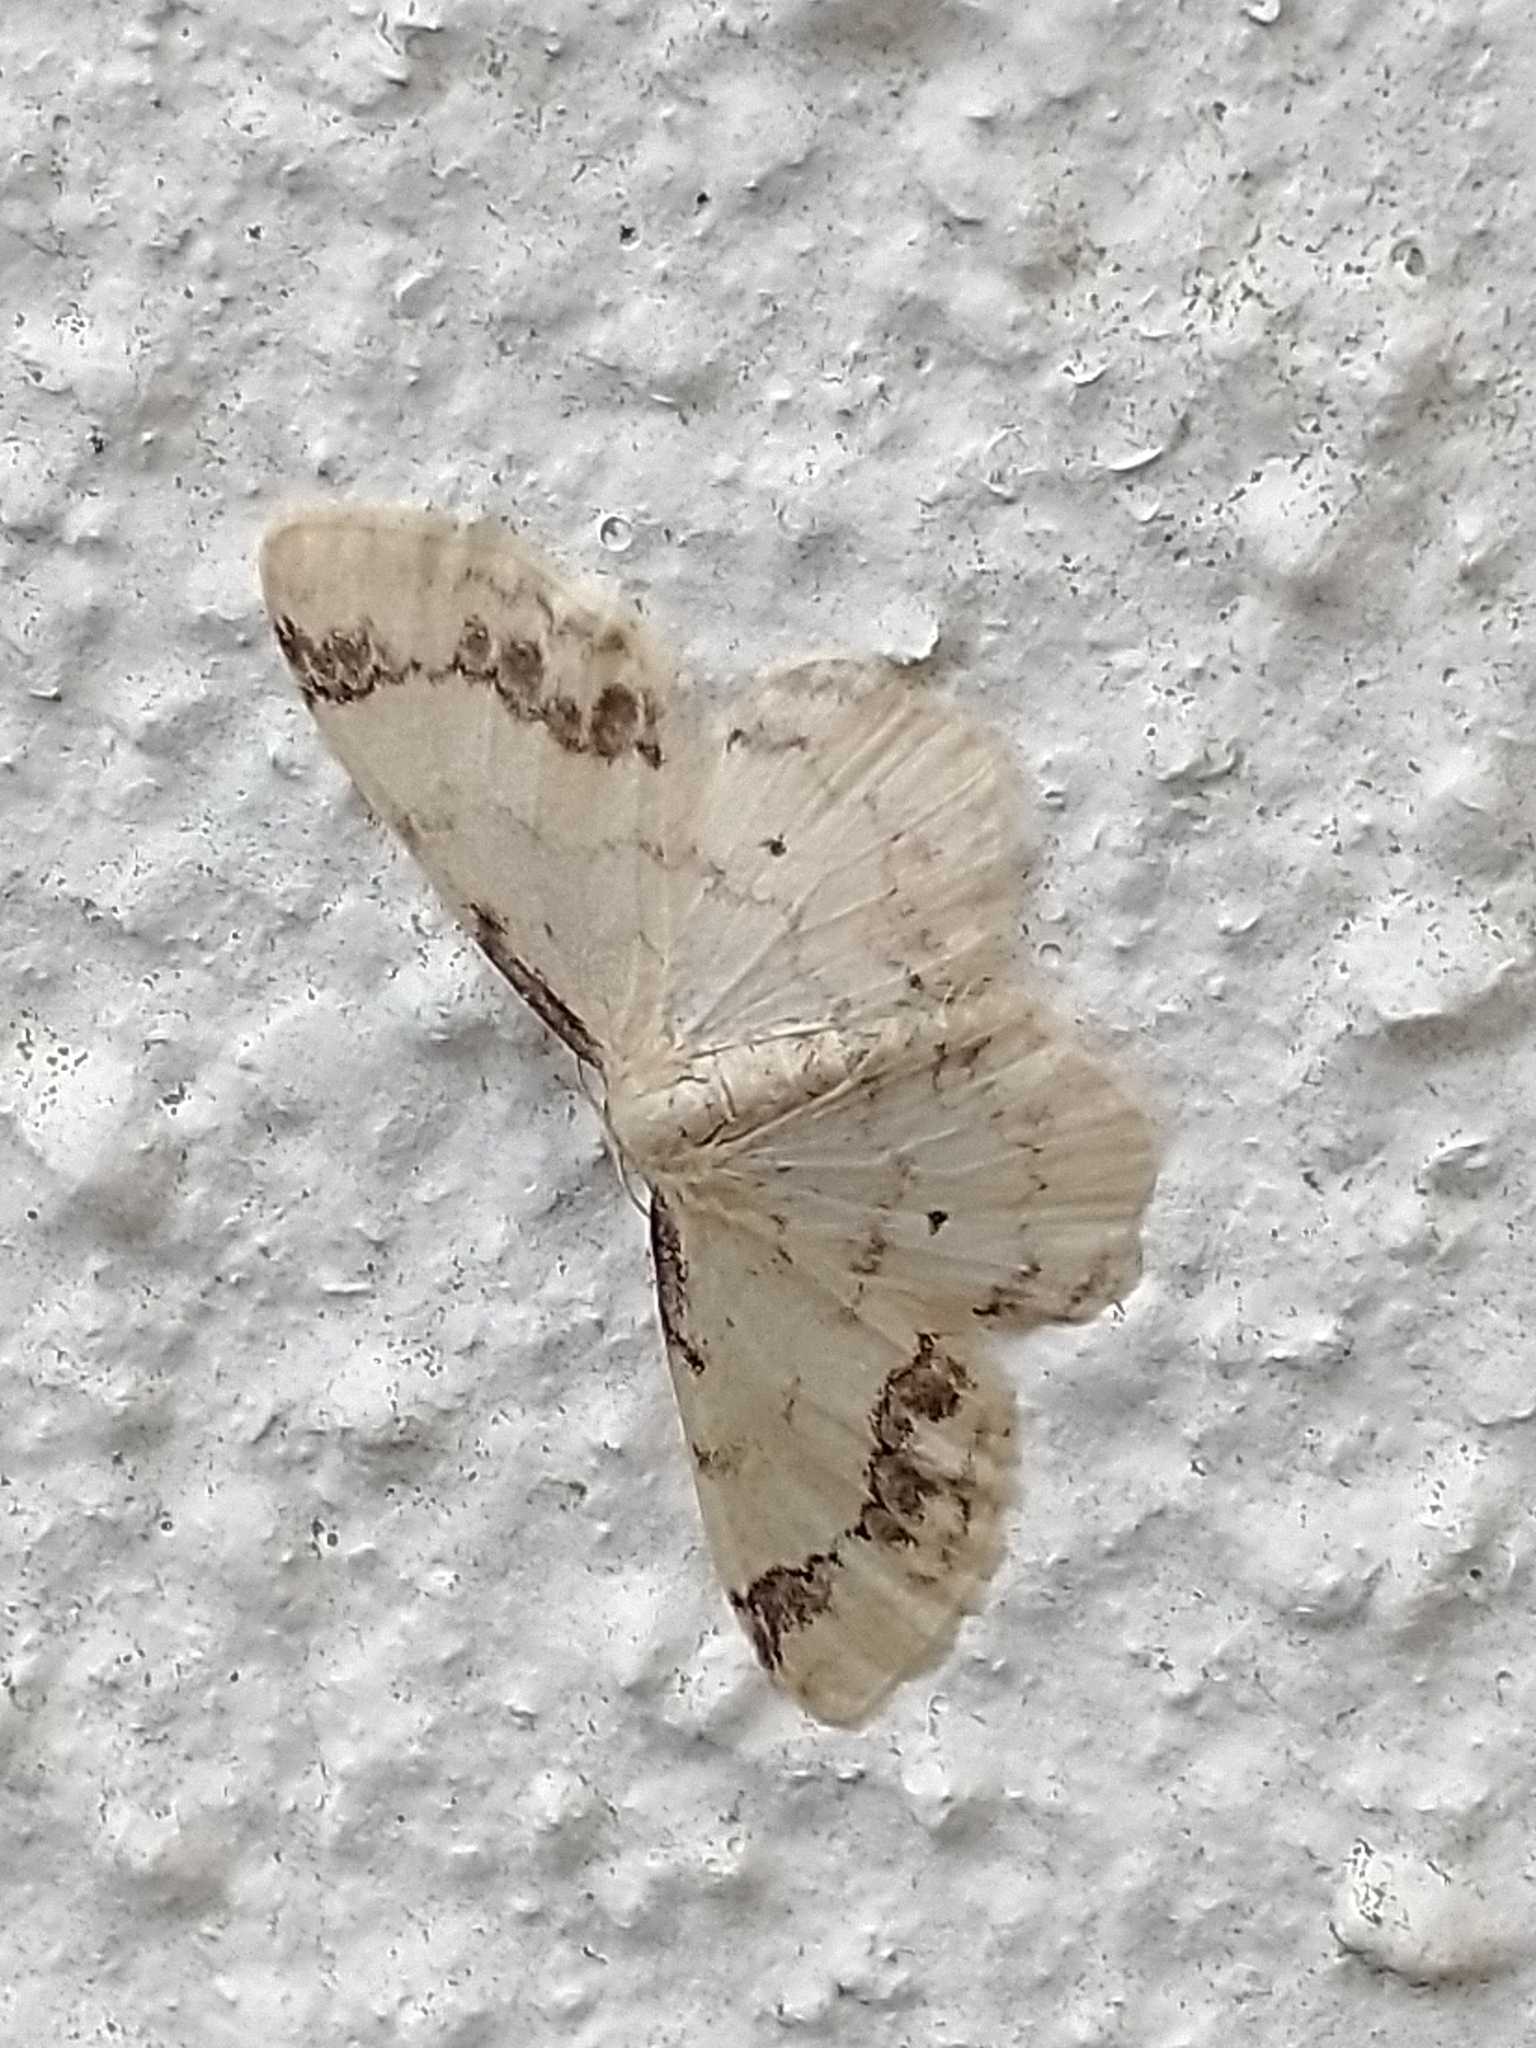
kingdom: Animalia
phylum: Arthropoda
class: Insecta
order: Lepidoptera
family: Geometridae
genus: Idaea
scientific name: Idaea trigeminata
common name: Treble brown spot
